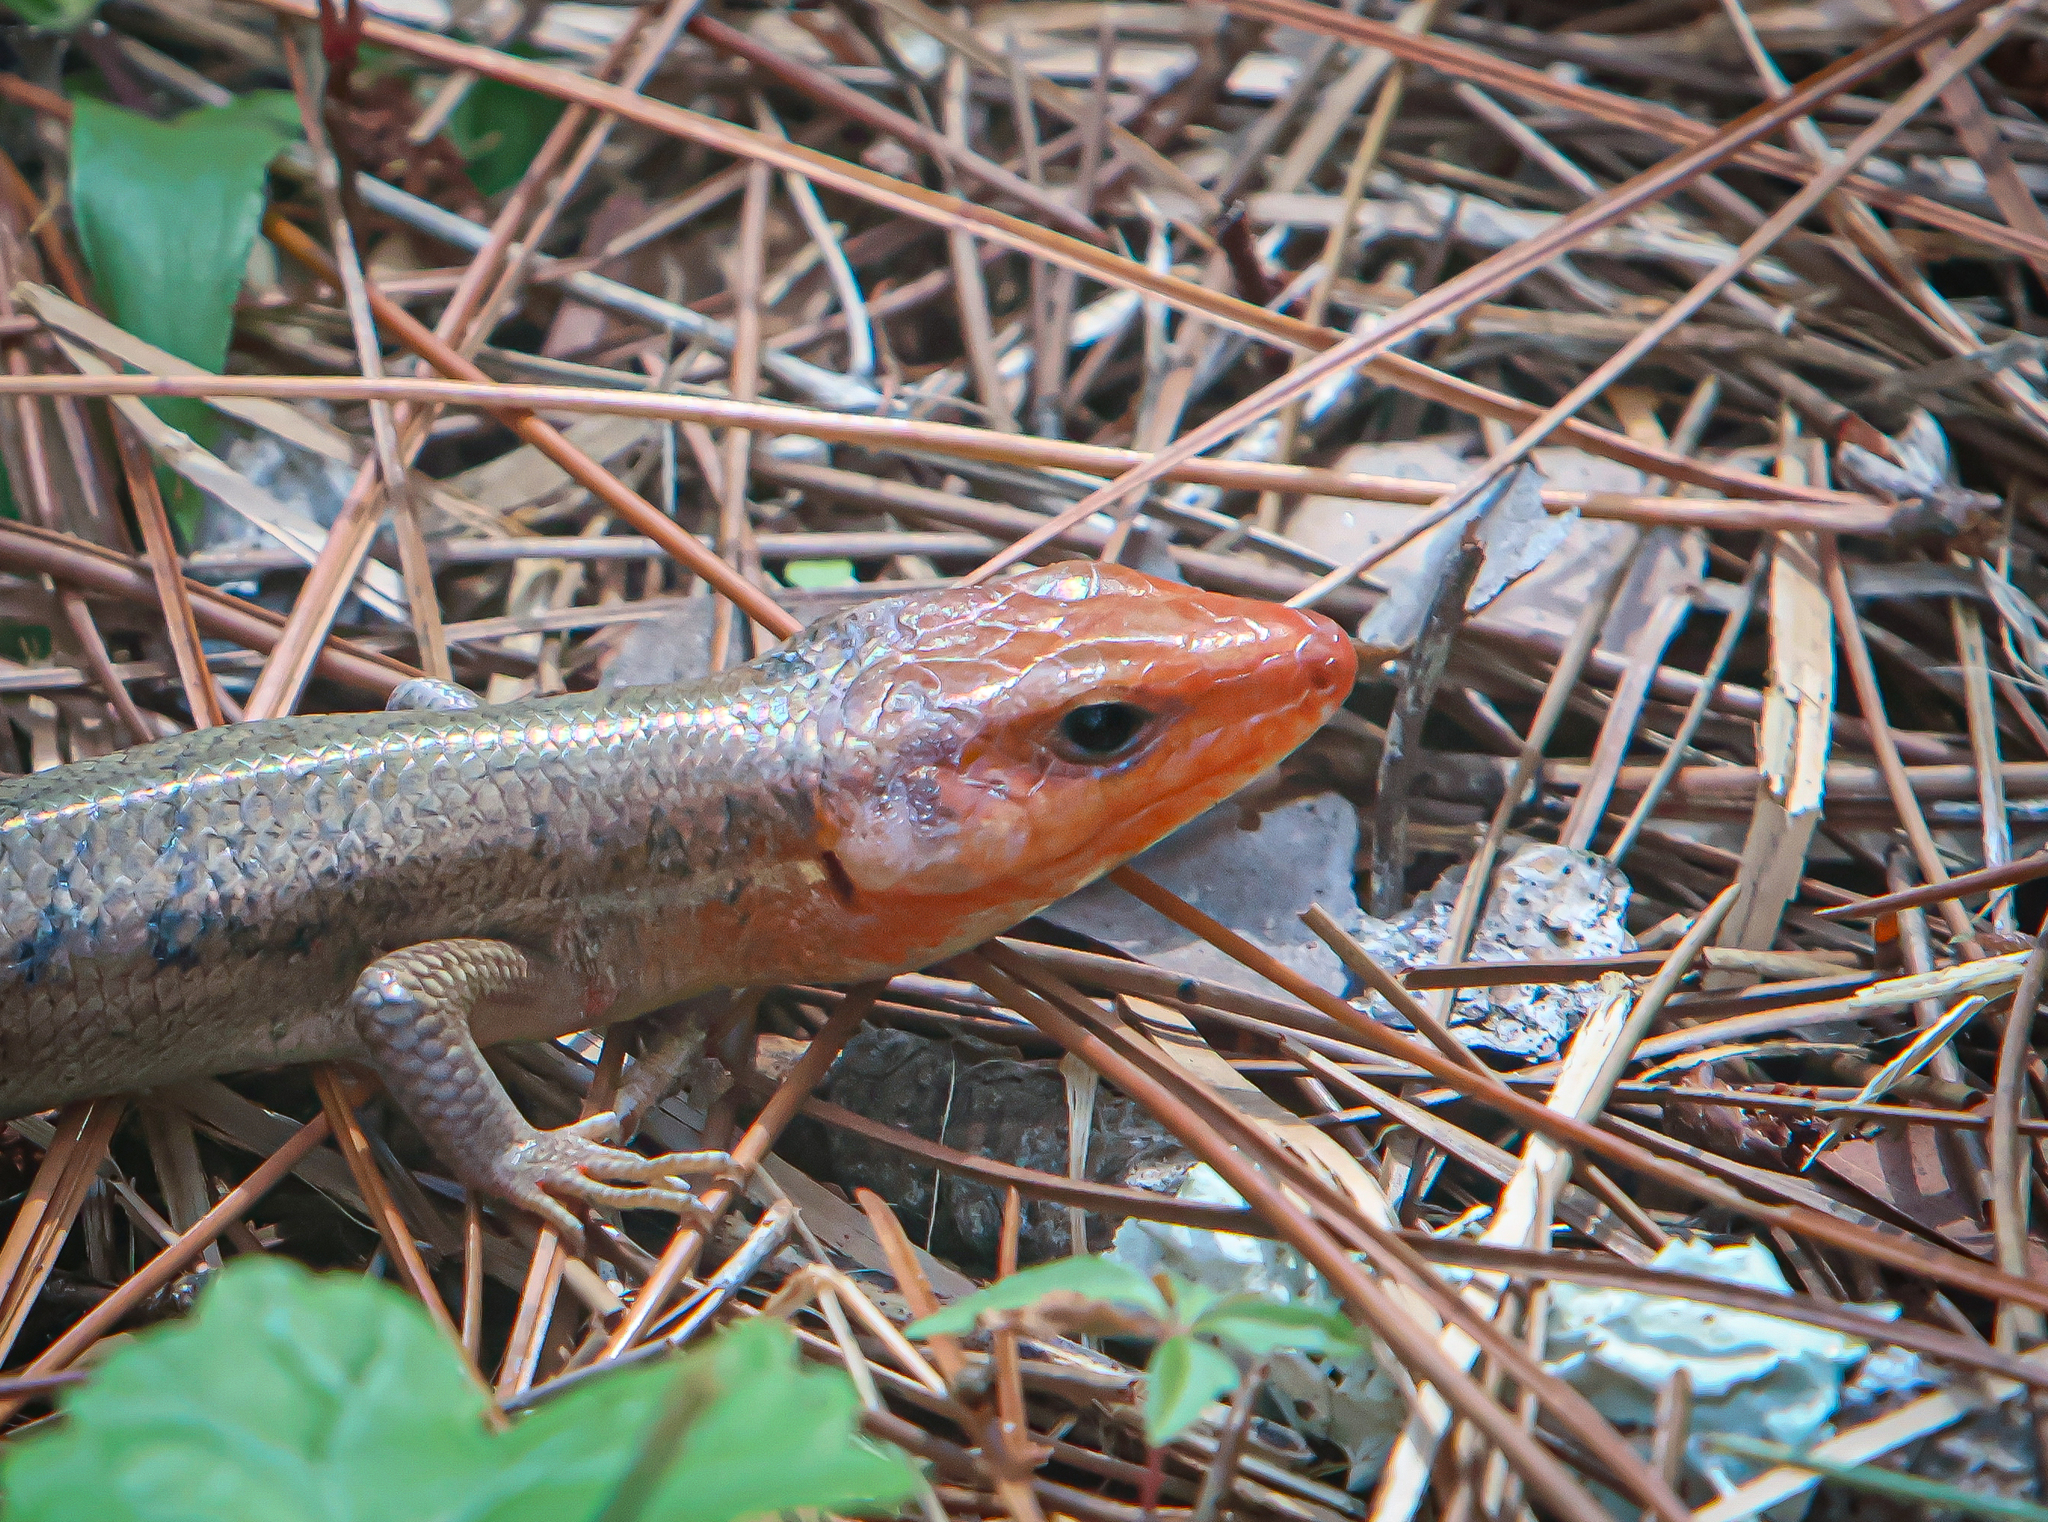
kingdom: Animalia
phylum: Chordata
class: Squamata
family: Scincidae
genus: Plestiodon
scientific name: Plestiodon laticeps
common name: Broadhead skink
